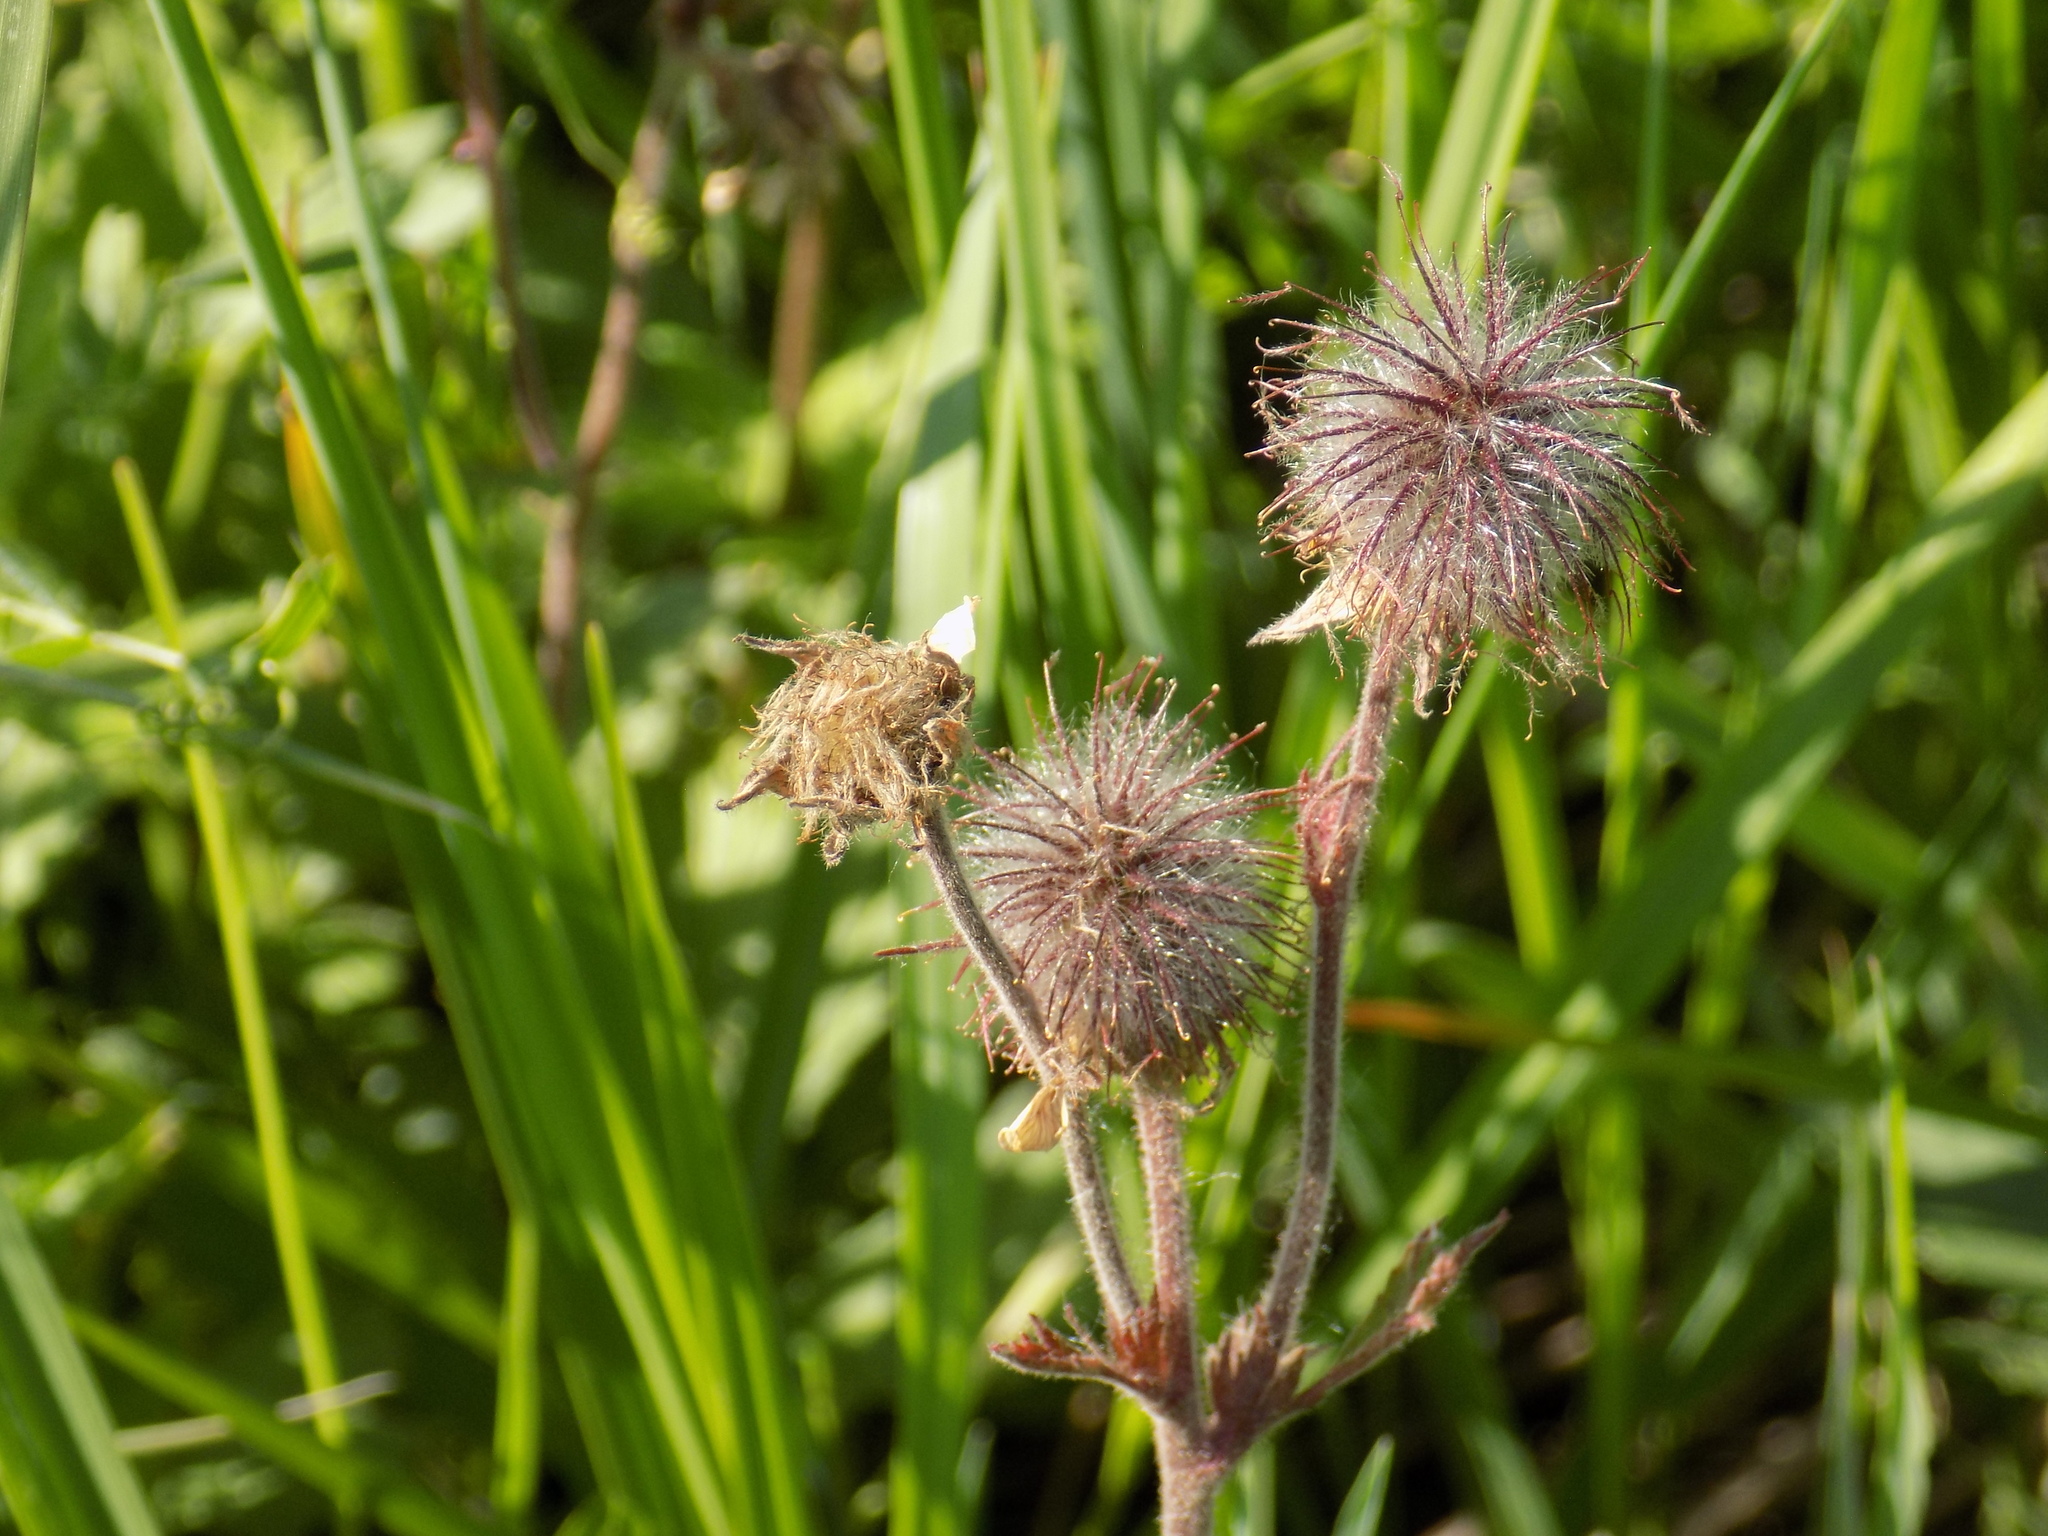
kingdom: Plantae
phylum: Tracheophyta
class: Magnoliopsida
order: Rosales
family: Rosaceae
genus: Geum
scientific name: Geum rivale
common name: Water avens
